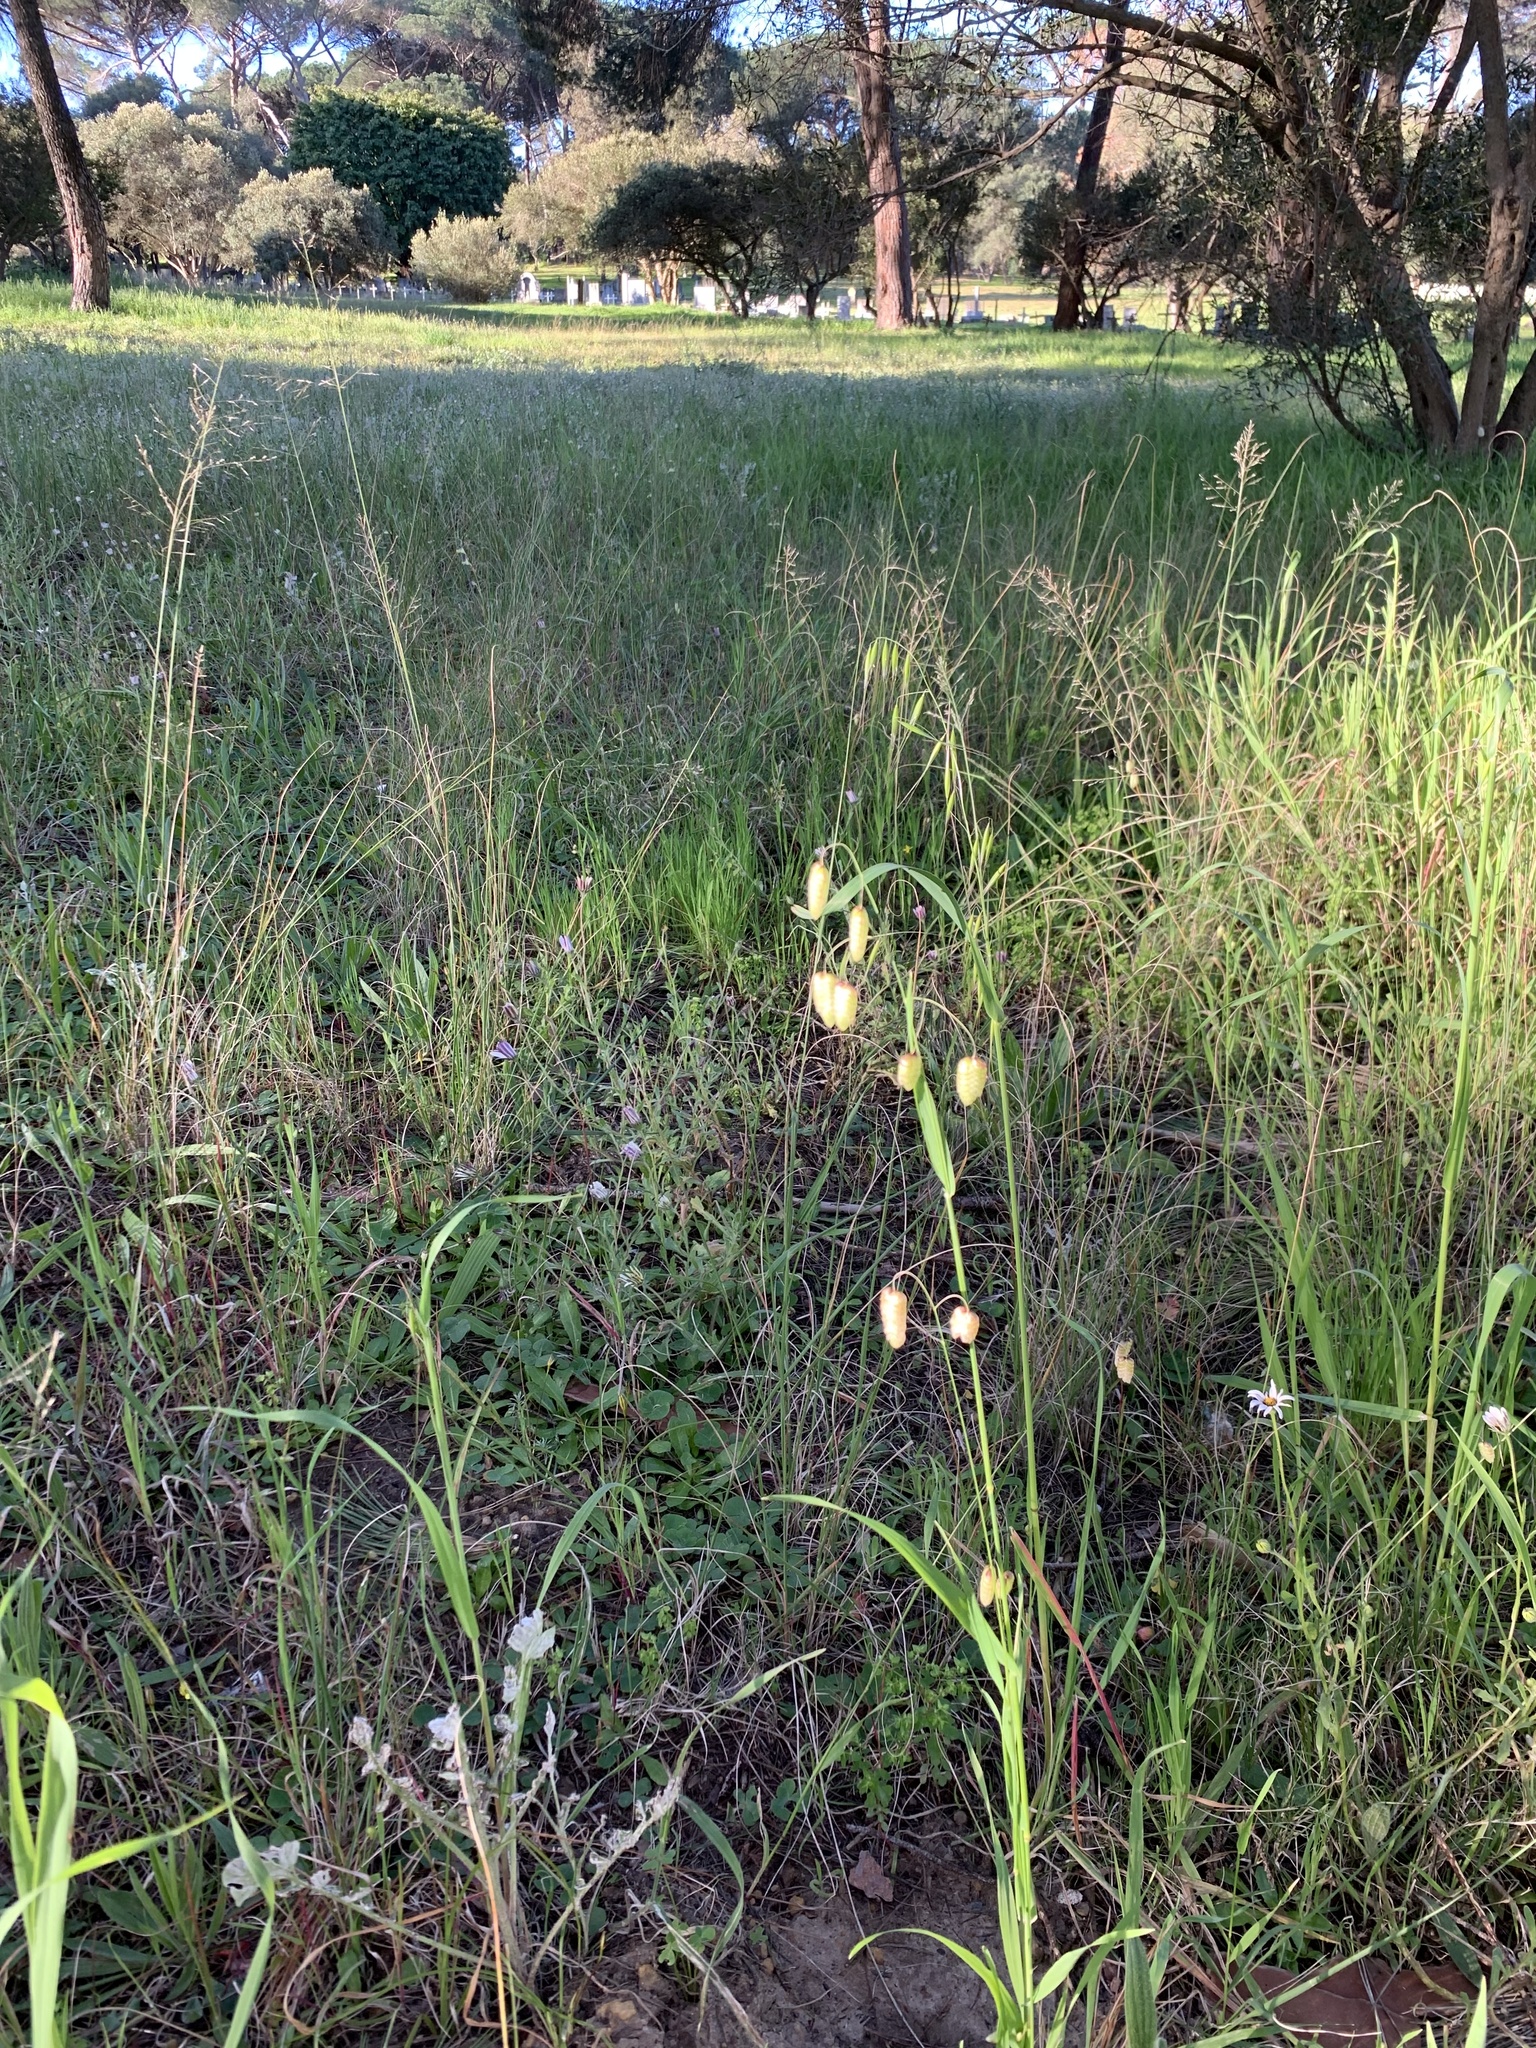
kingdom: Plantae
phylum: Tracheophyta
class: Liliopsida
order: Poales
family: Poaceae
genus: Briza
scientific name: Briza maxima
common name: Big quakinggrass
